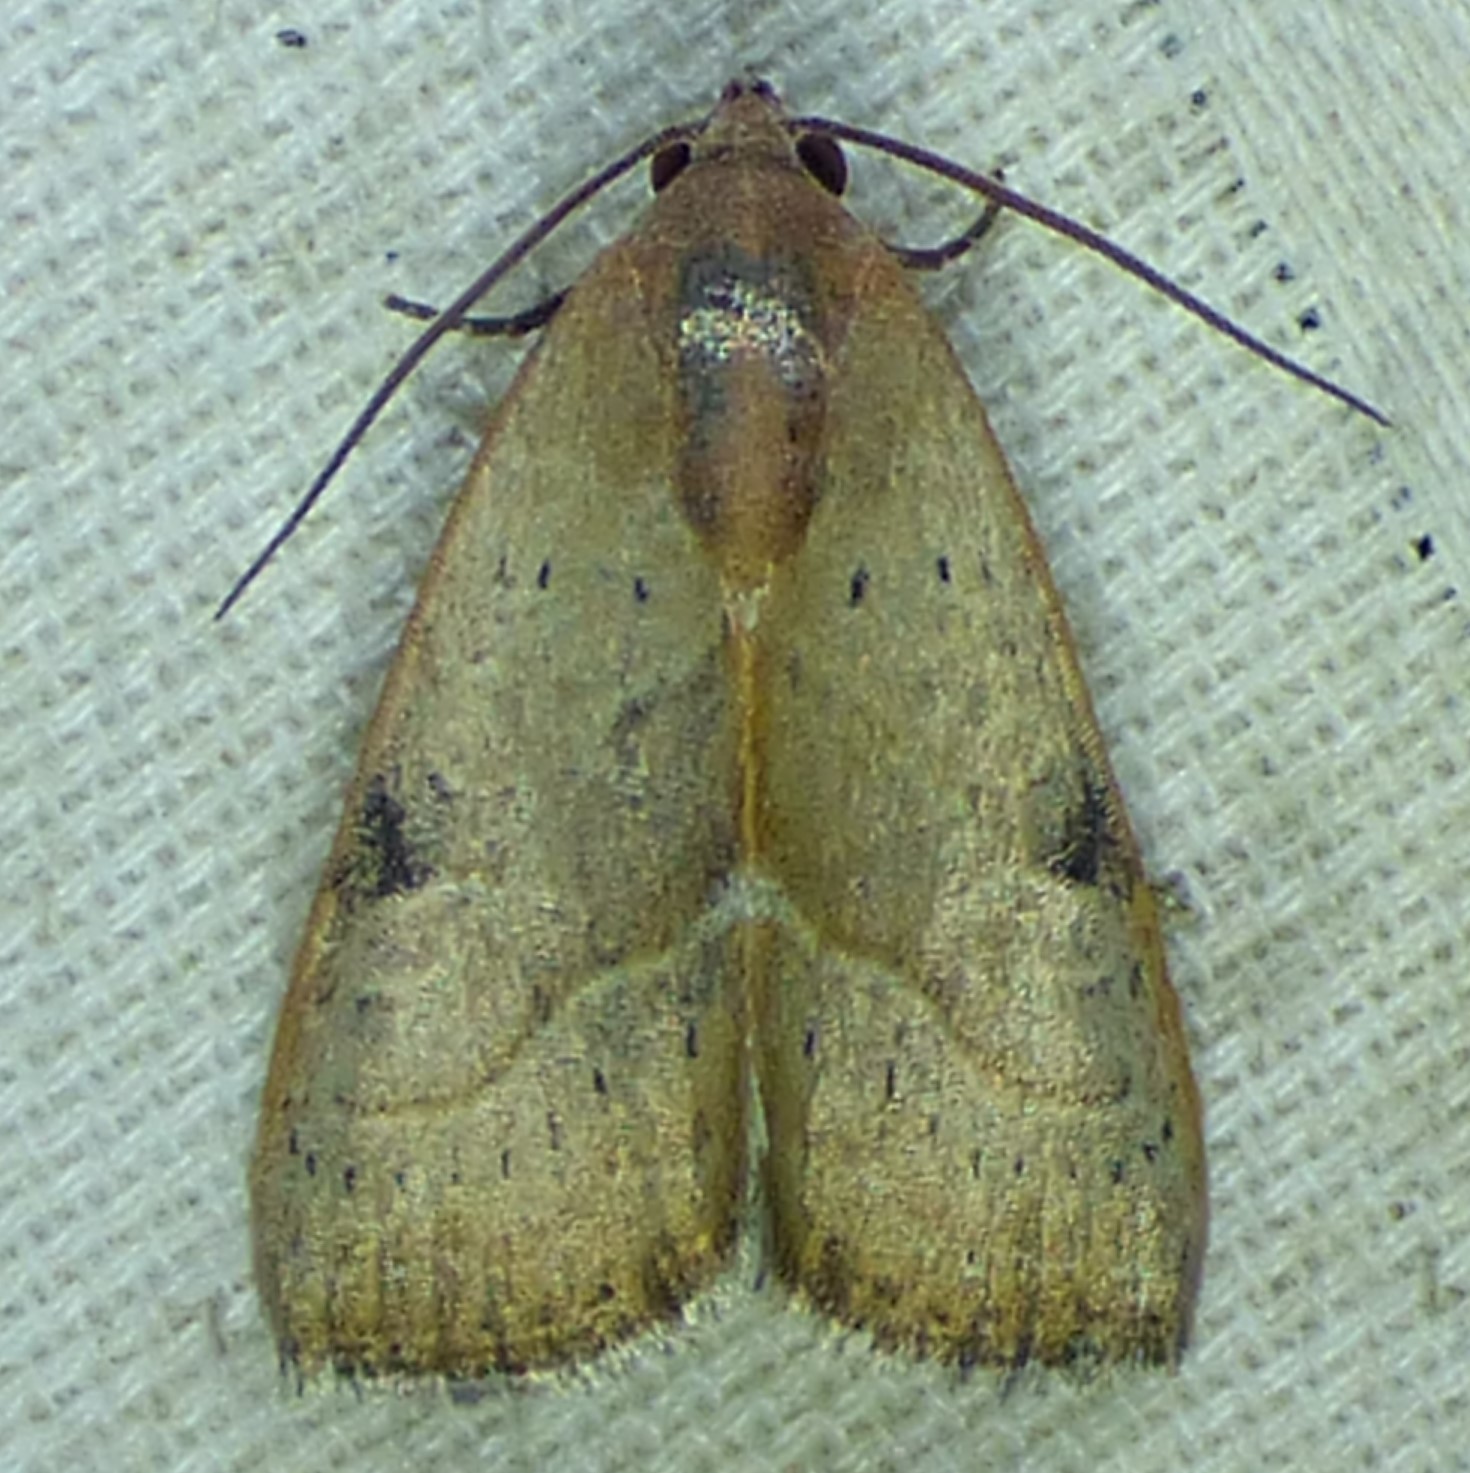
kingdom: Animalia
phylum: Arthropoda
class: Insecta
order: Lepidoptera
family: Noctuidae
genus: Galgula
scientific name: Galgula partita
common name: Wedgeling
